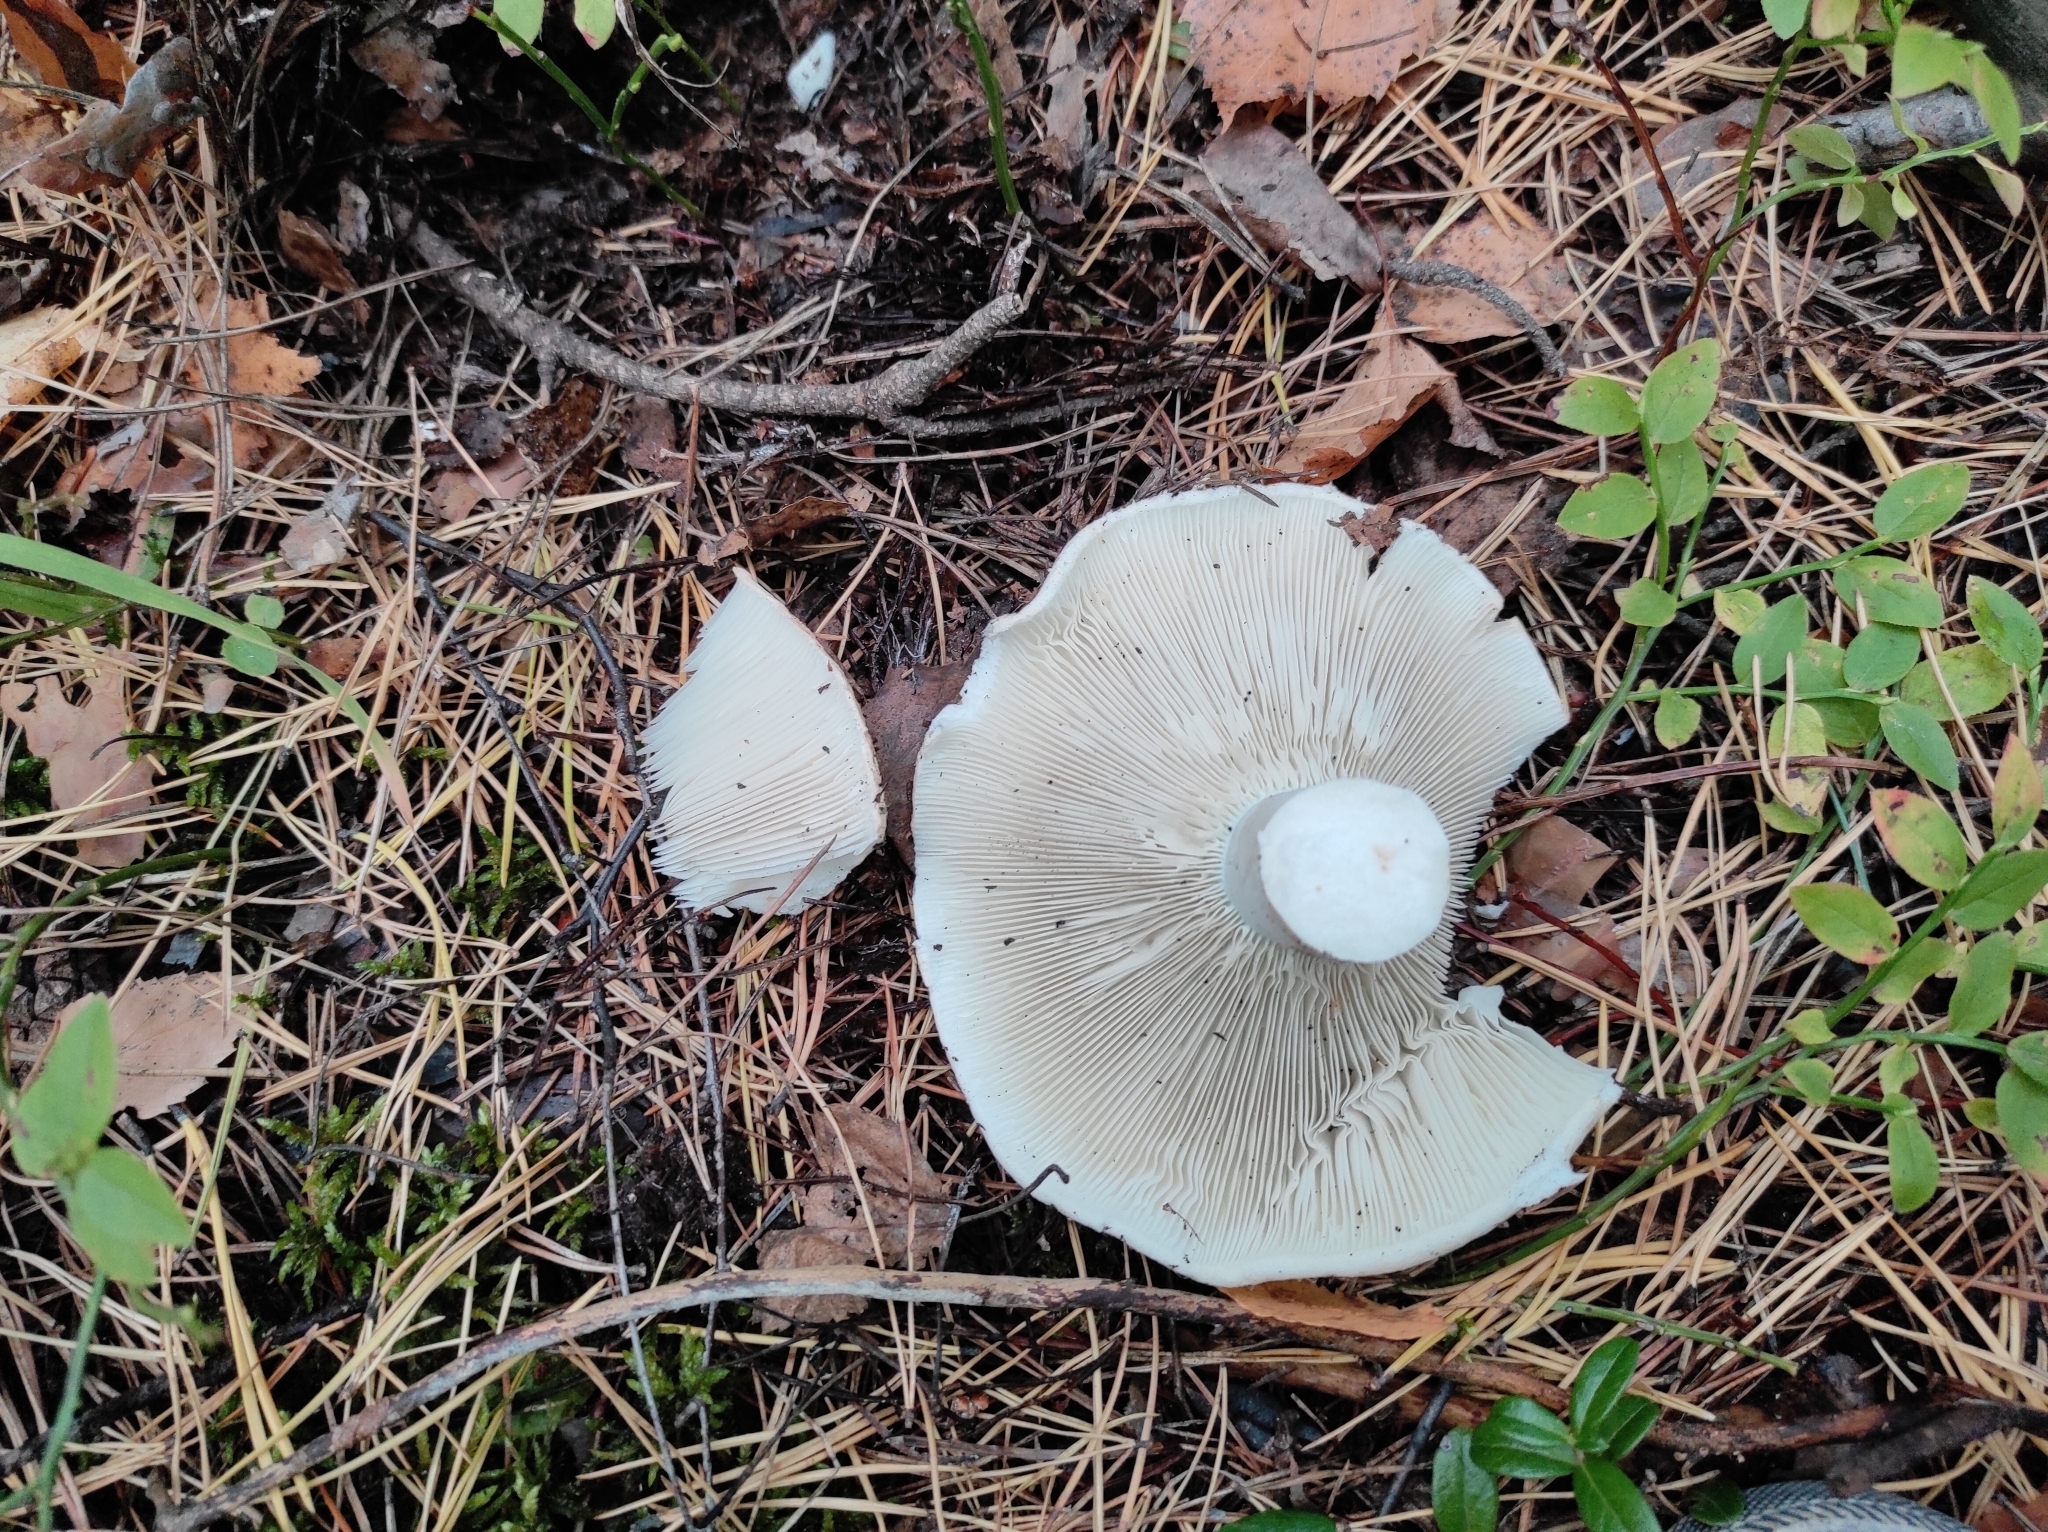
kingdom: Fungi
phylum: Basidiomycota
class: Agaricomycetes
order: Russulales
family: Russulaceae
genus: Russula
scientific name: Russula delica
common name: Milk white brittlegill
